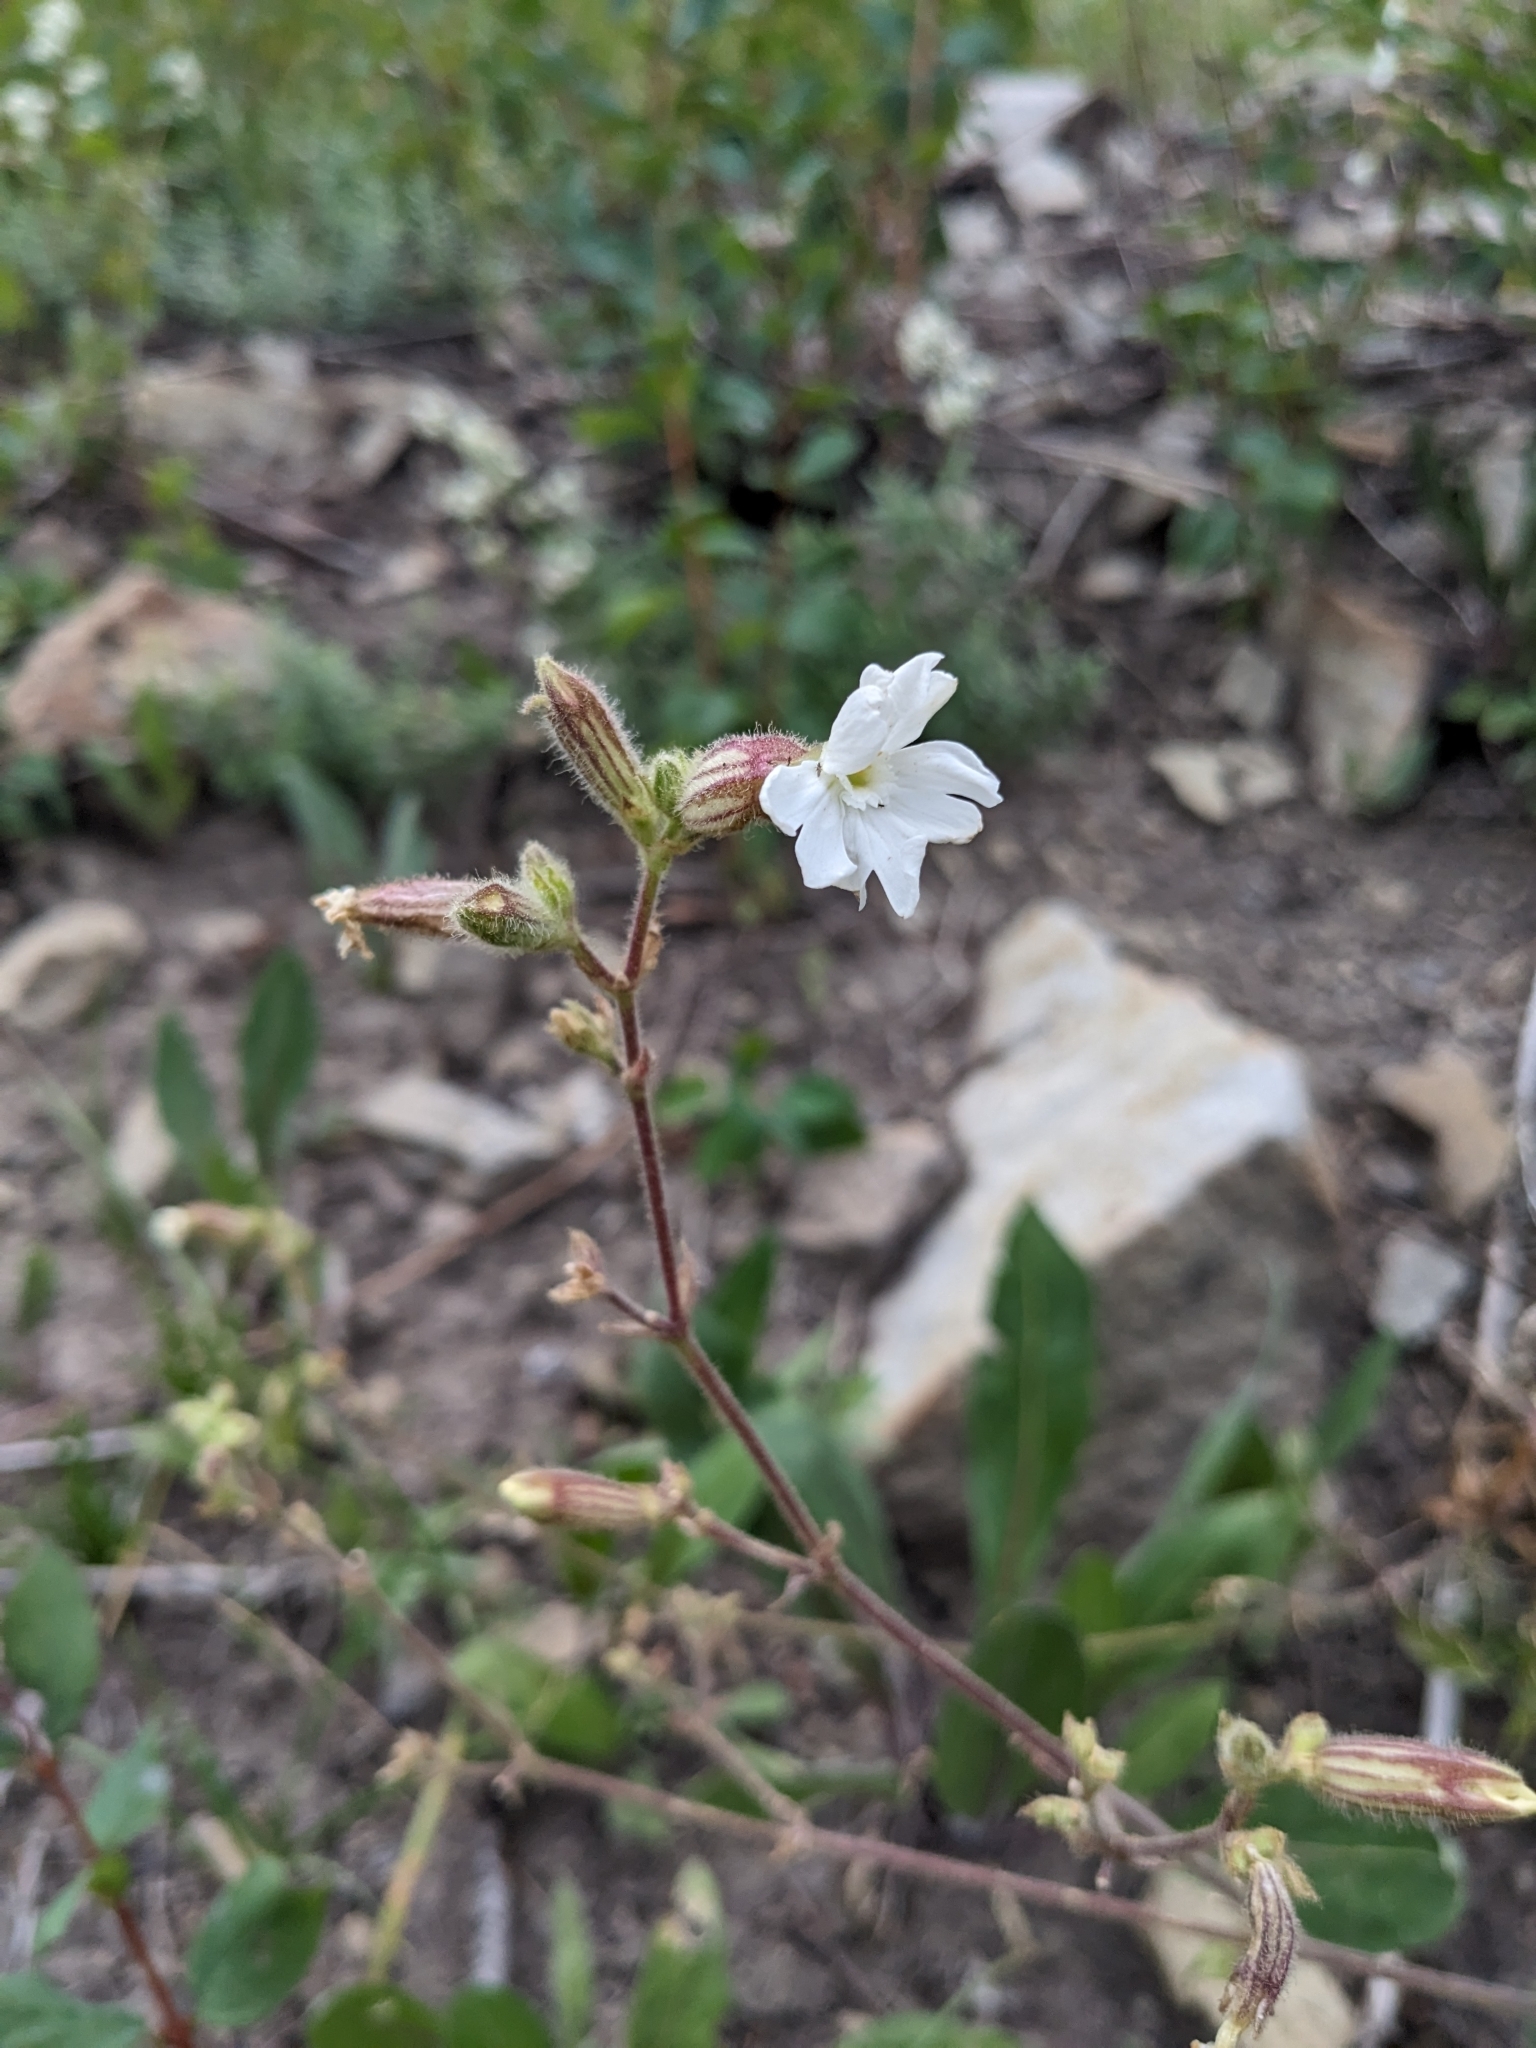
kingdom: Plantae
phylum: Tracheophyta
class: Magnoliopsida
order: Caryophyllales
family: Caryophyllaceae
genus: Silene
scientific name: Silene latifolia
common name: White campion
